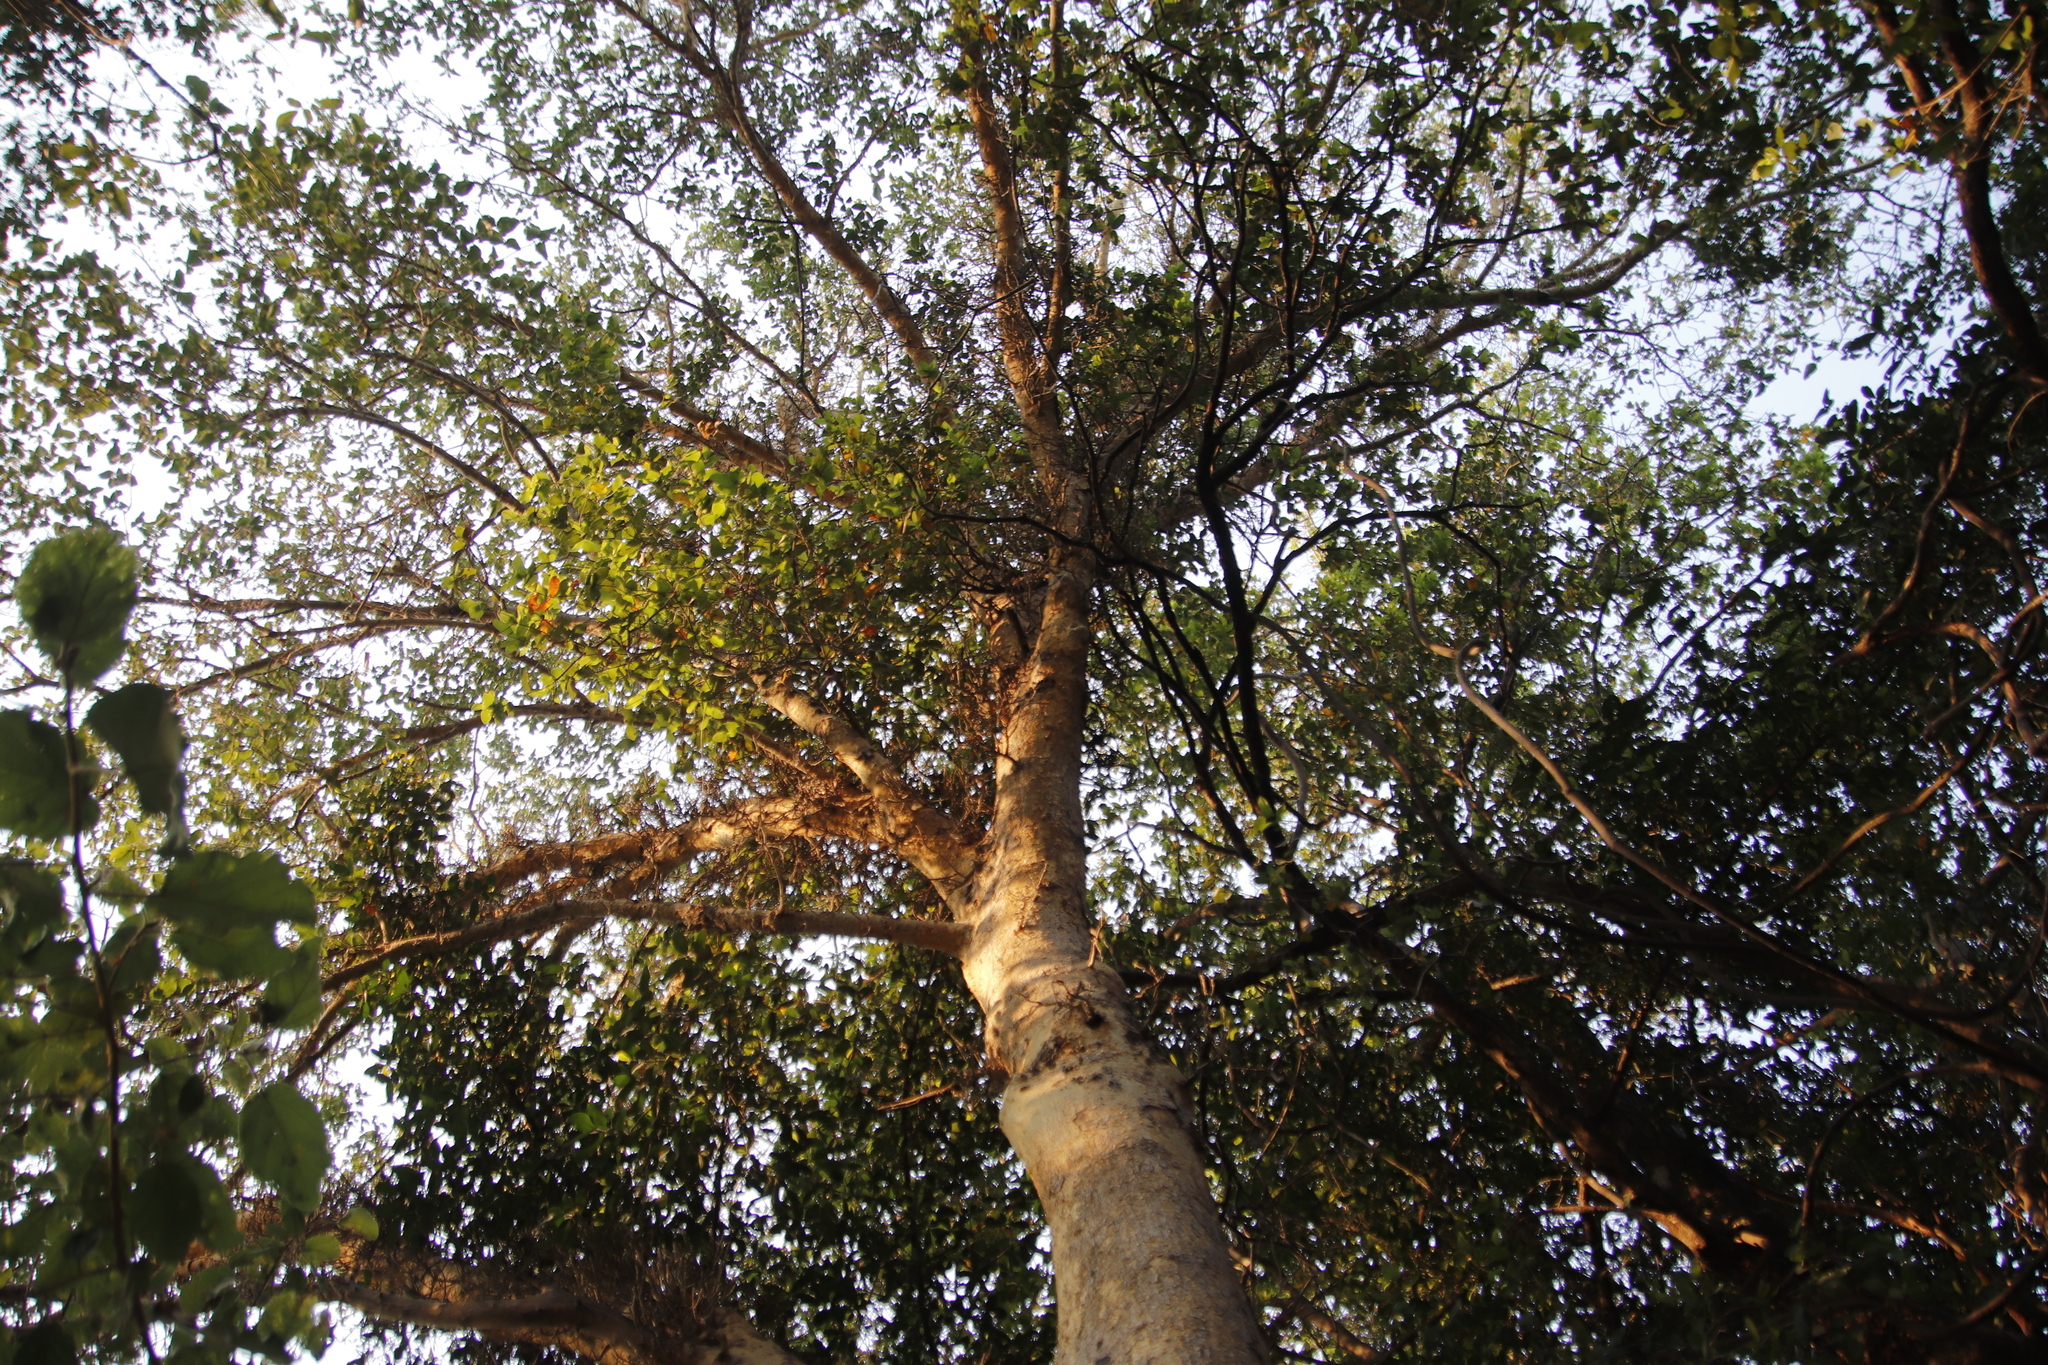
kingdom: Plantae
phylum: Tracheophyta
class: Magnoliopsida
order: Rosales
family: Moraceae
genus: Ficus
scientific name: Ficus sycomorus
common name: Sycomore
